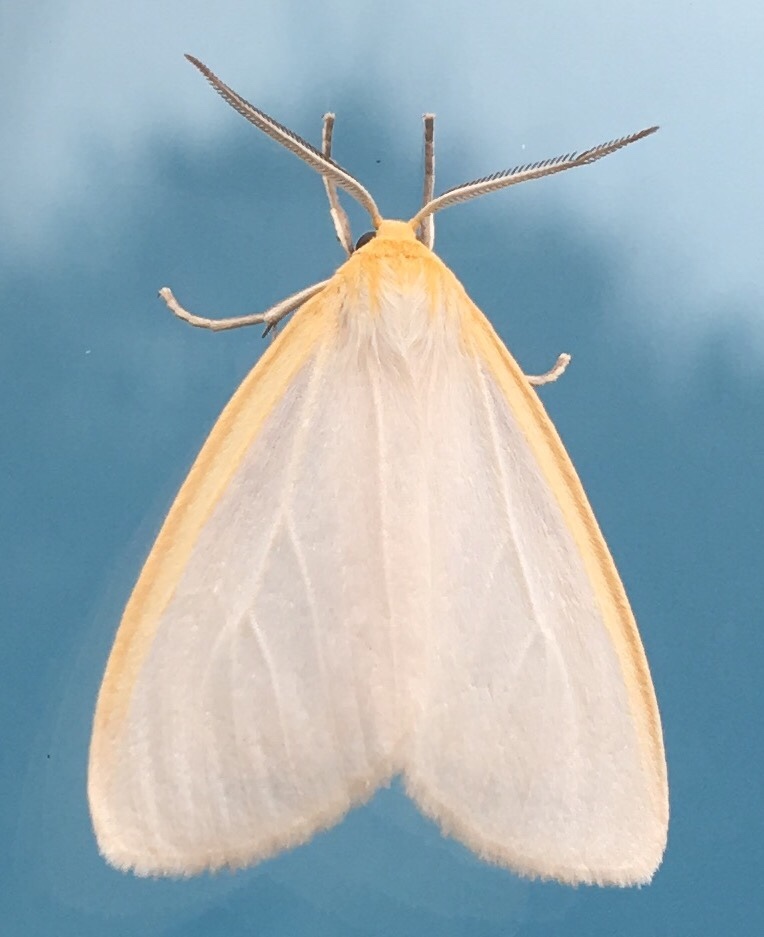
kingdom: Animalia
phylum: Arthropoda
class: Insecta
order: Lepidoptera
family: Erebidae
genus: Cycnia
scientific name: Cycnia tenera
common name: Delicate cycnia moth
